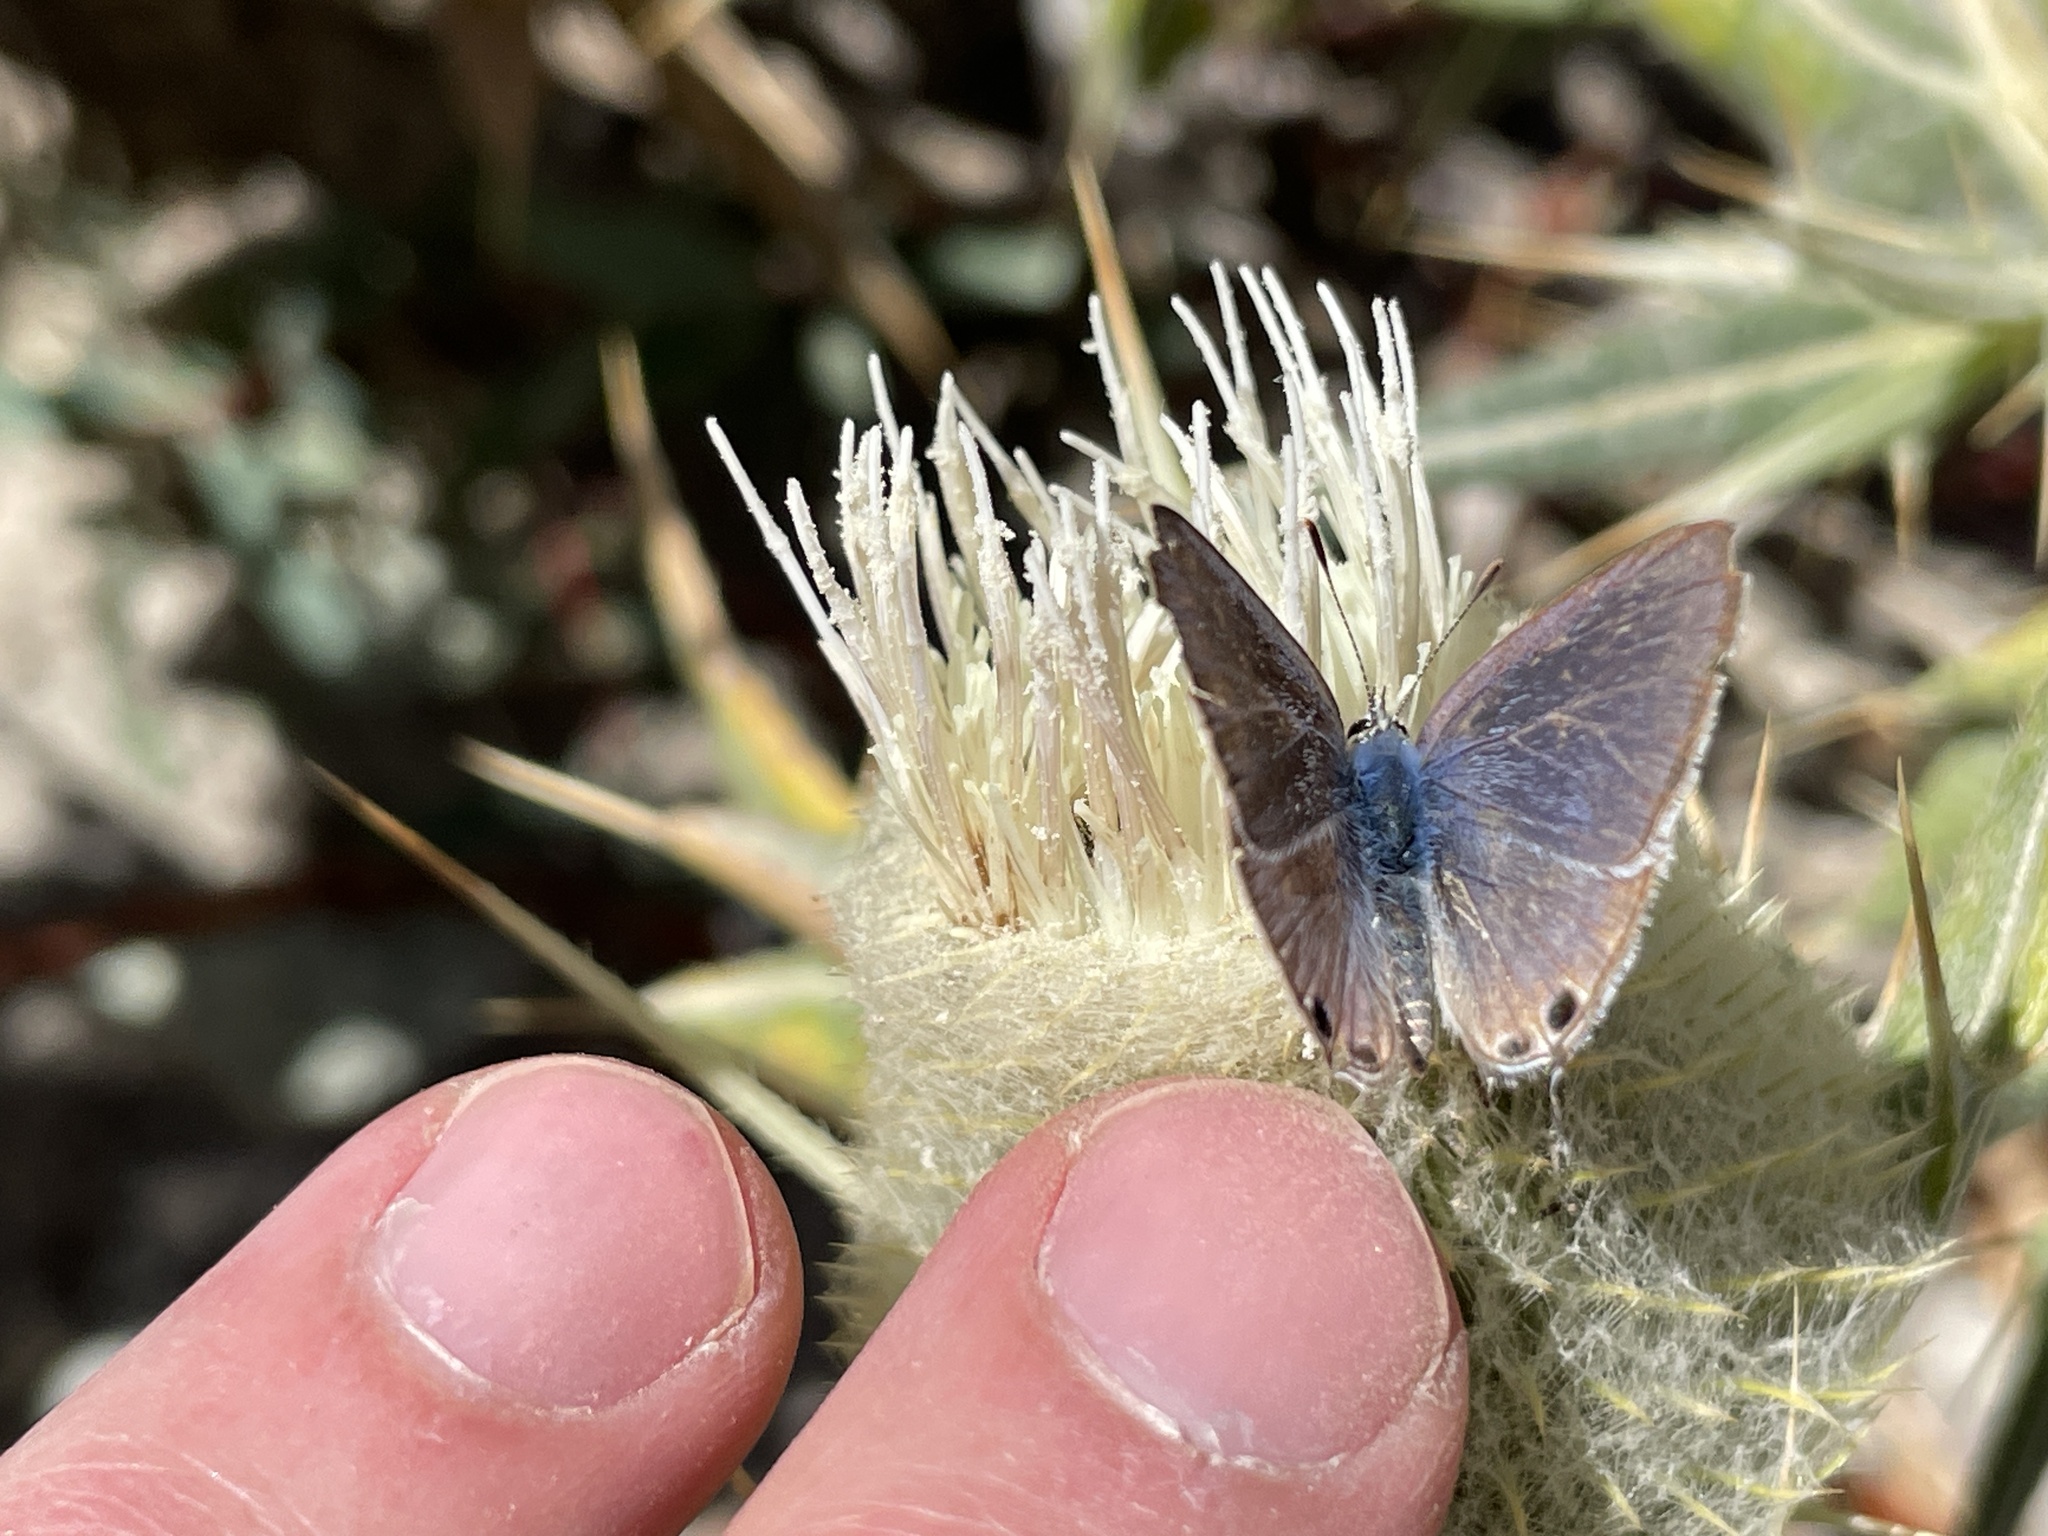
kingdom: Animalia
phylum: Arthropoda
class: Insecta
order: Lepidoptera
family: Lycaenidae
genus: Lampides
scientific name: Lampides boeticus
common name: Long-tailed blue
